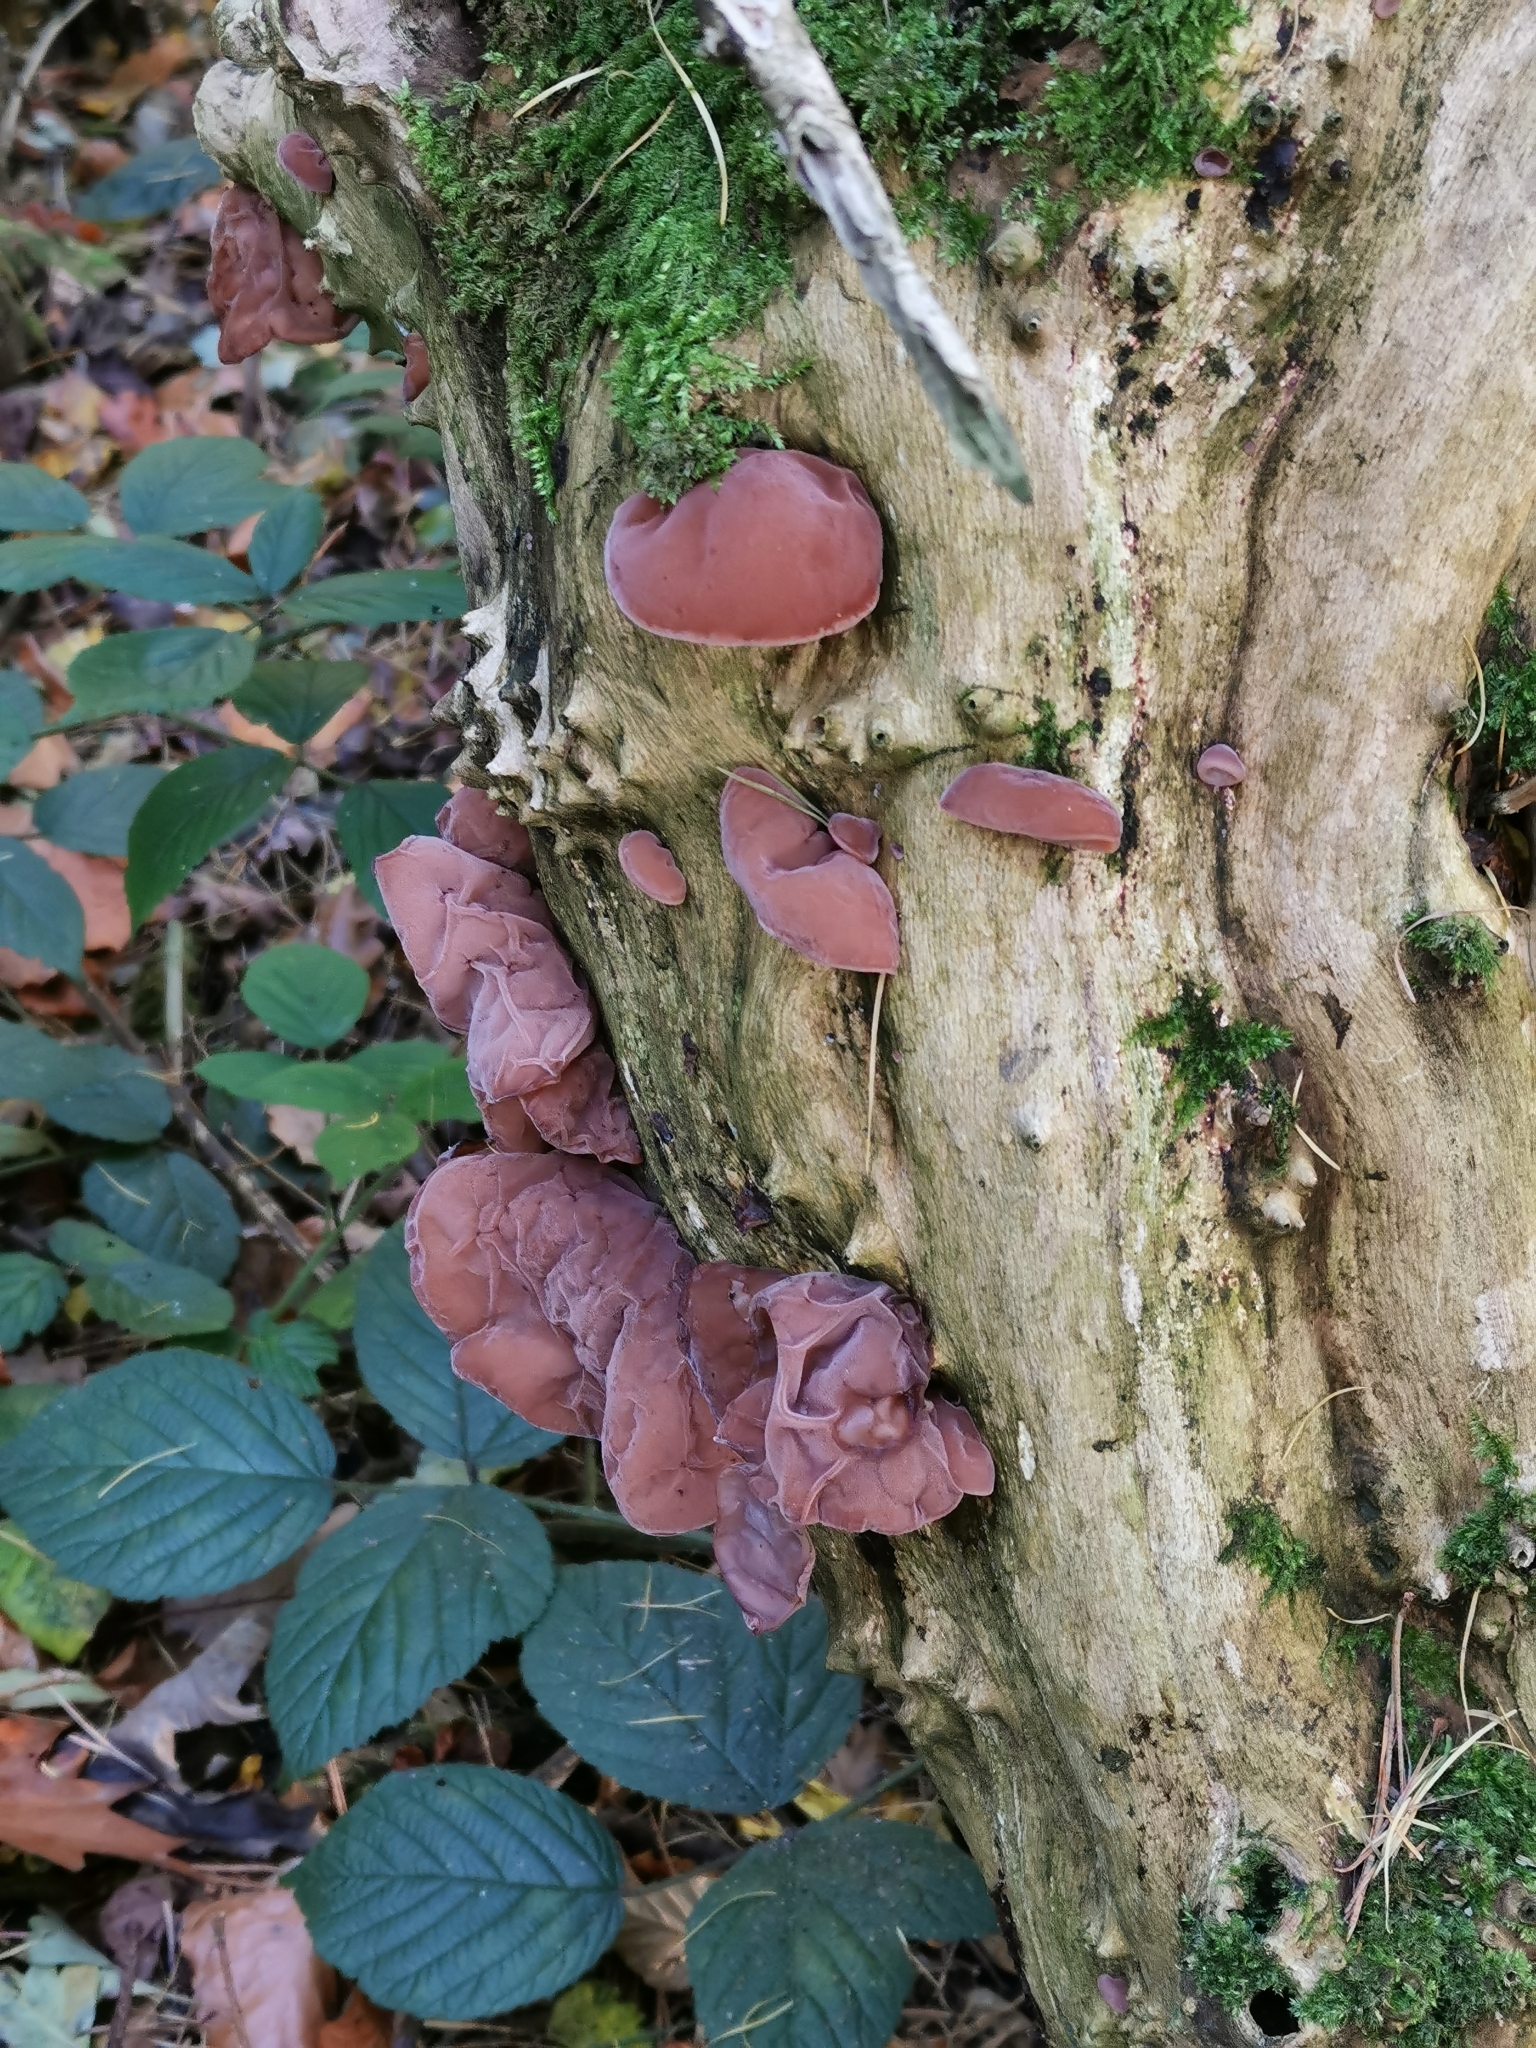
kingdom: Fungi
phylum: Basidiomycota
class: Agaricomycetes
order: Auriculariales
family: Auriculariaceae
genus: Auricularia
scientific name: Auricularia auricula-judae
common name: Jelly ear
